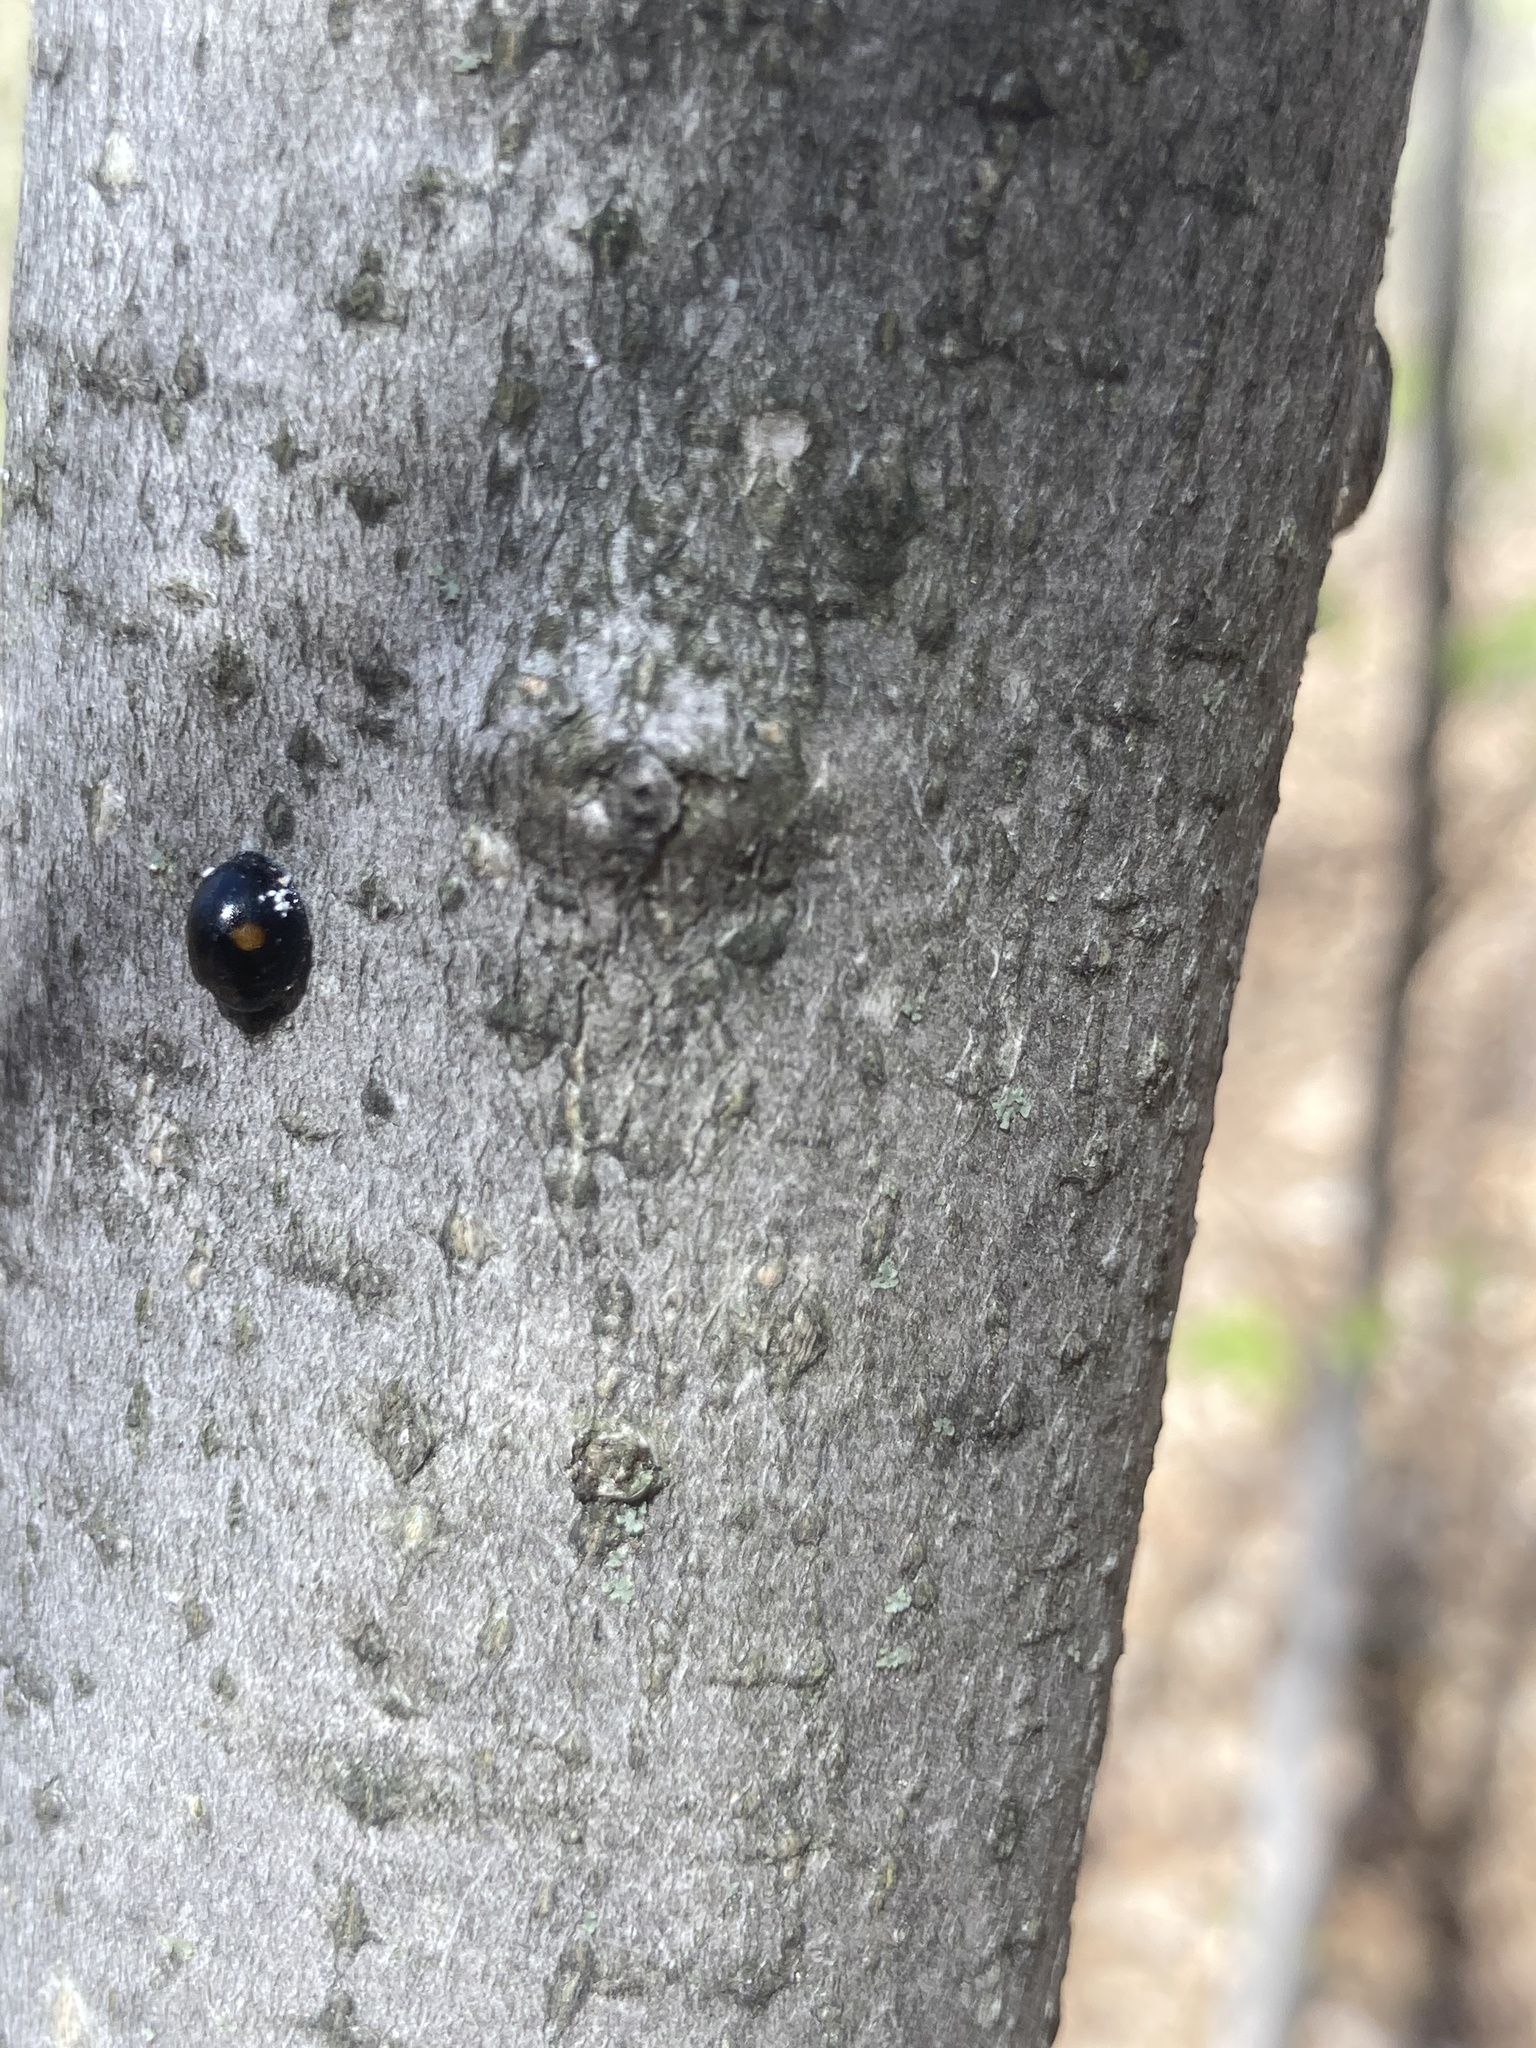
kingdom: Animalia
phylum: Arthropoda
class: Insecta
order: Coleoptera
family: Coccinellidae
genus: Chilocorus
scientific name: Chilocorus stigma
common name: Twicestabbed lady beetle
